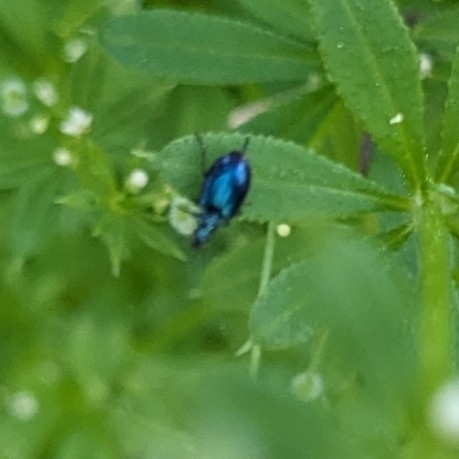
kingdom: Animalia
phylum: Arthropoda
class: Insecta
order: Coleoptera
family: Carabidae
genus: Lebia
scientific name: Lebia viridis
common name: Flower lebia beetle
